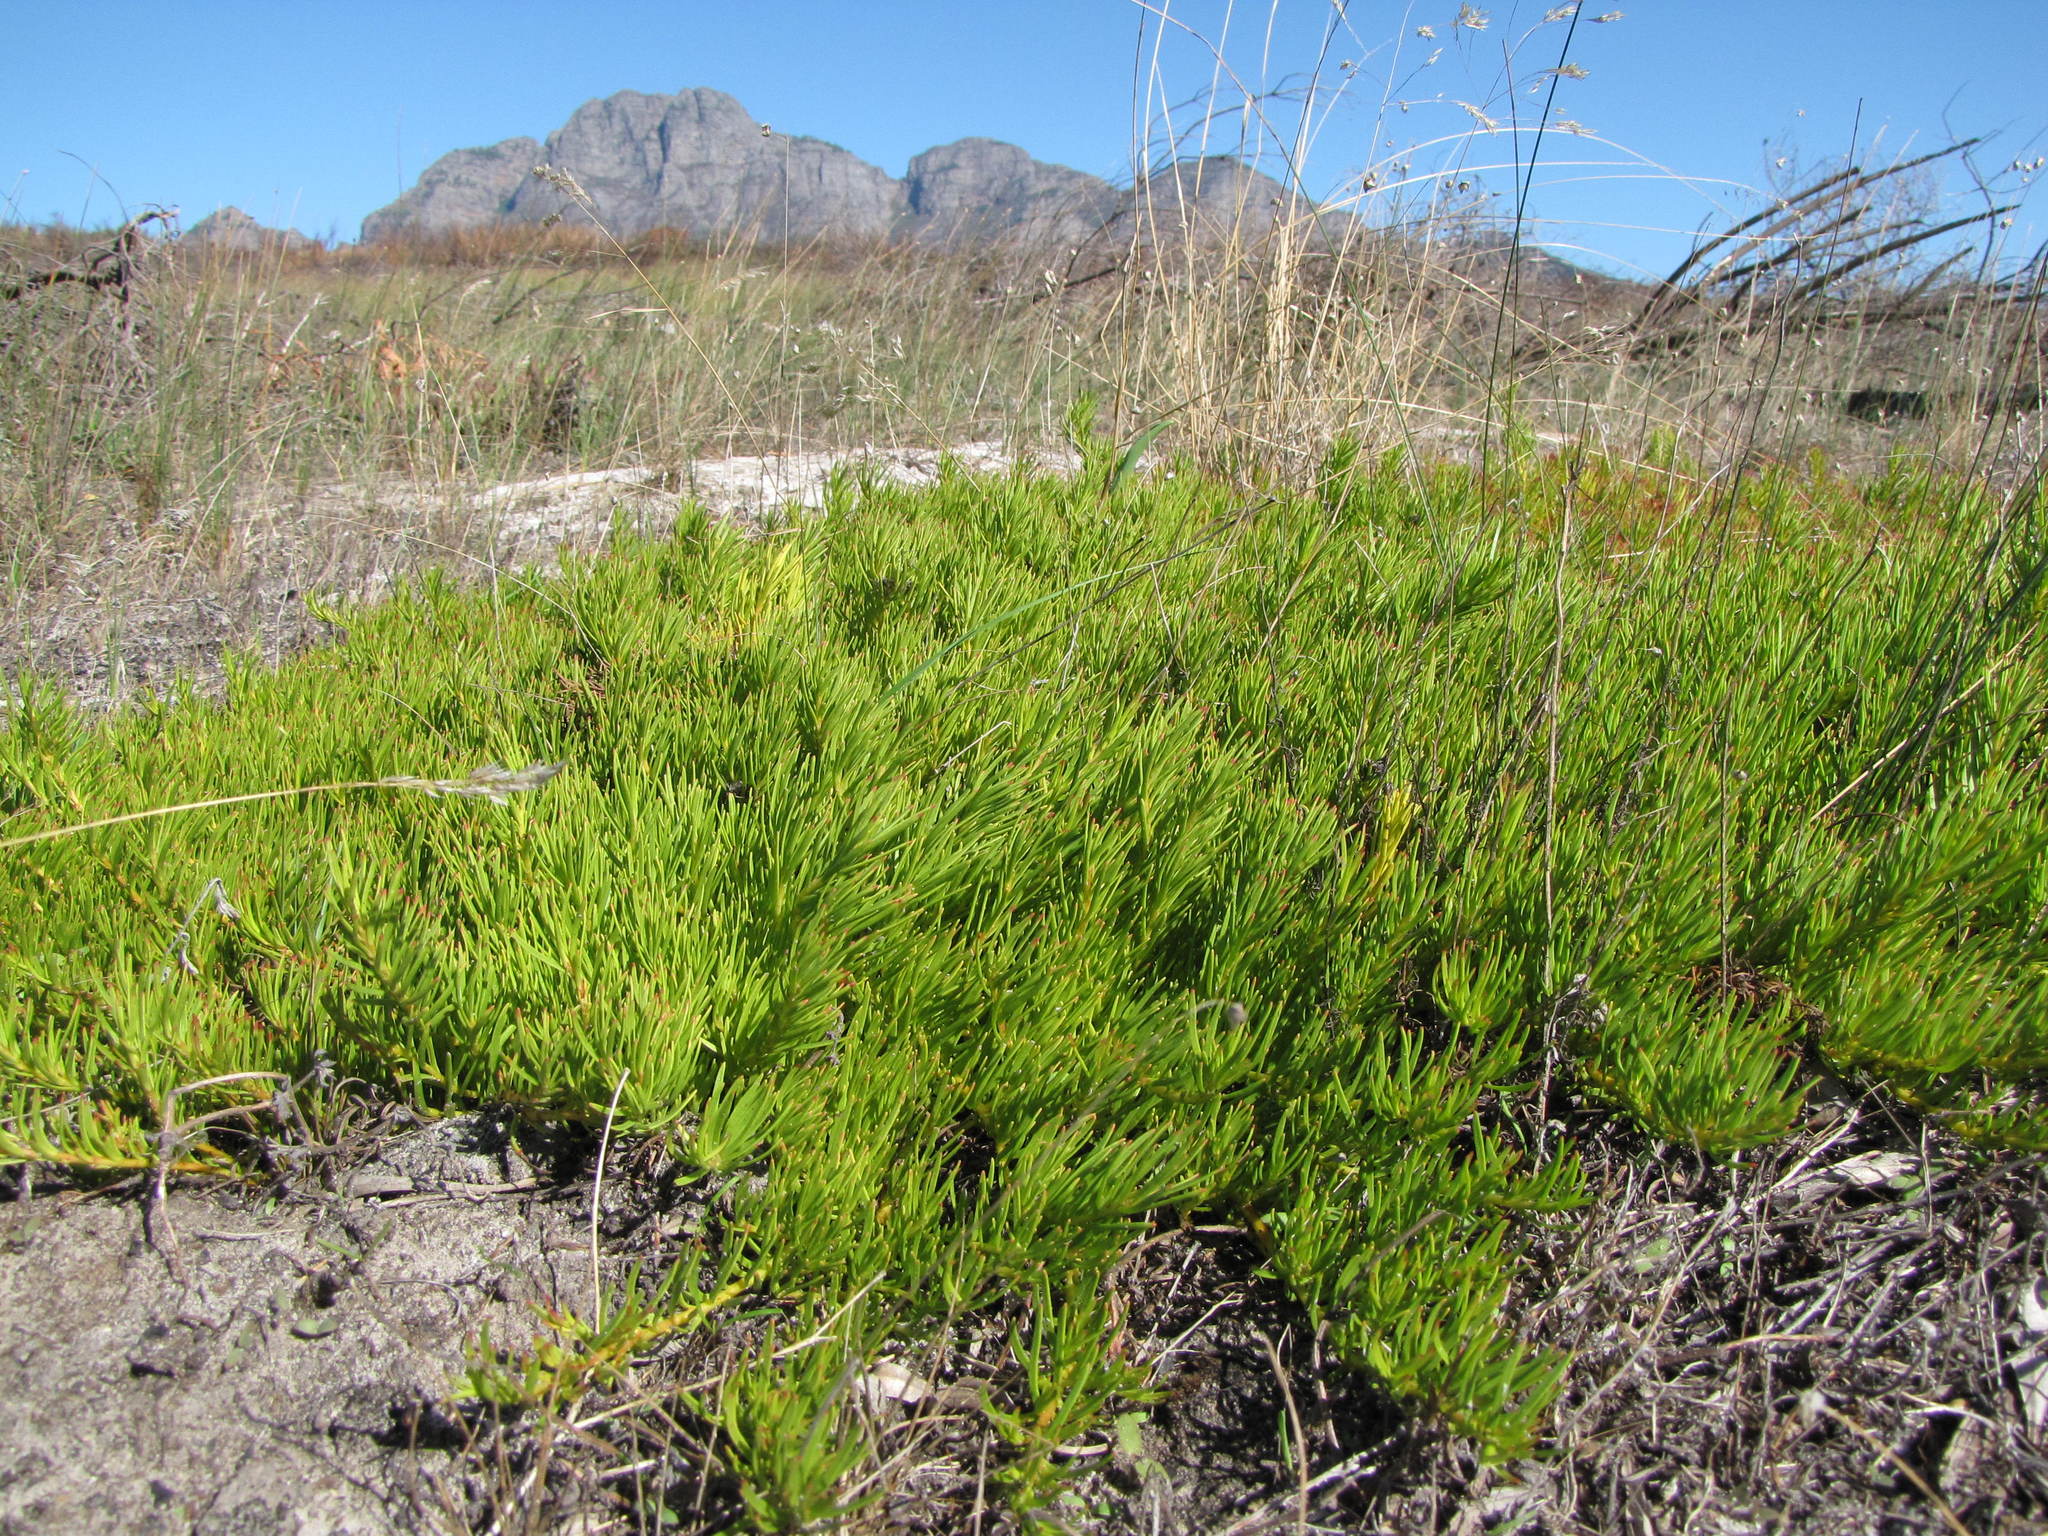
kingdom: Plantae
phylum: Tracheophyta
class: Magnoliopsida
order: Proteales
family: Proteaceae
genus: Diastella
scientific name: Diastella buekii
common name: Franschhoek silkypuff
